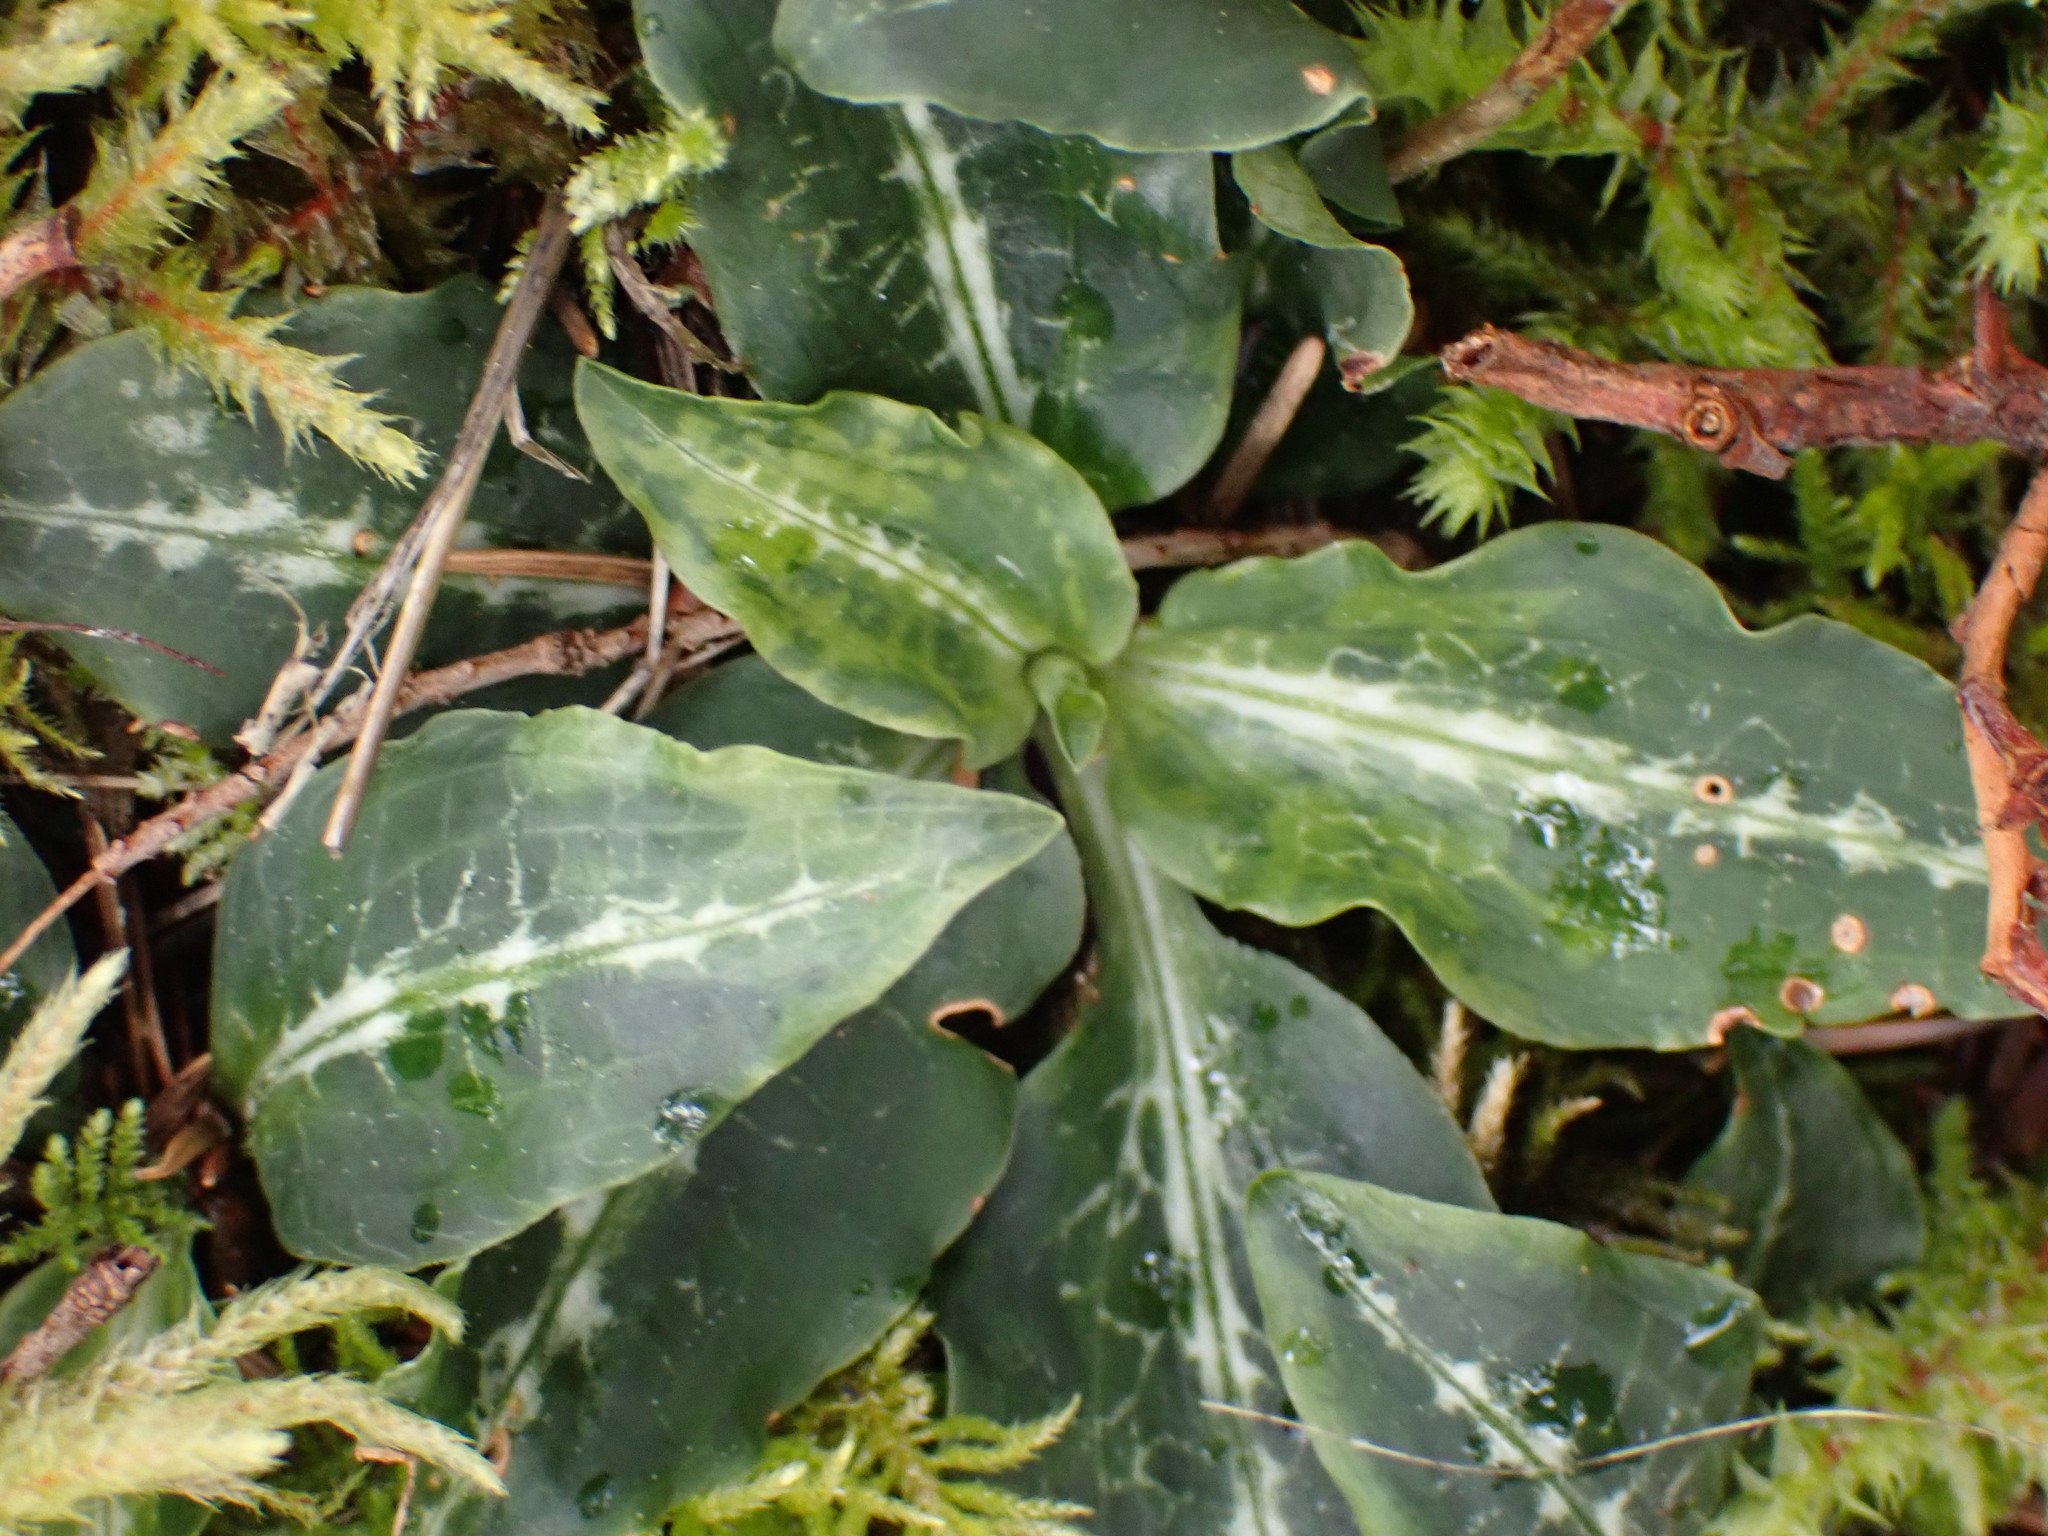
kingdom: Plantae
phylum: Tracheophyta
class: Liliopsida
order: Asparagales
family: Orchidaceae
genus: Goodyera
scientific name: Goodyera oblongifolia
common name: Giant rattlesnake-plantain
